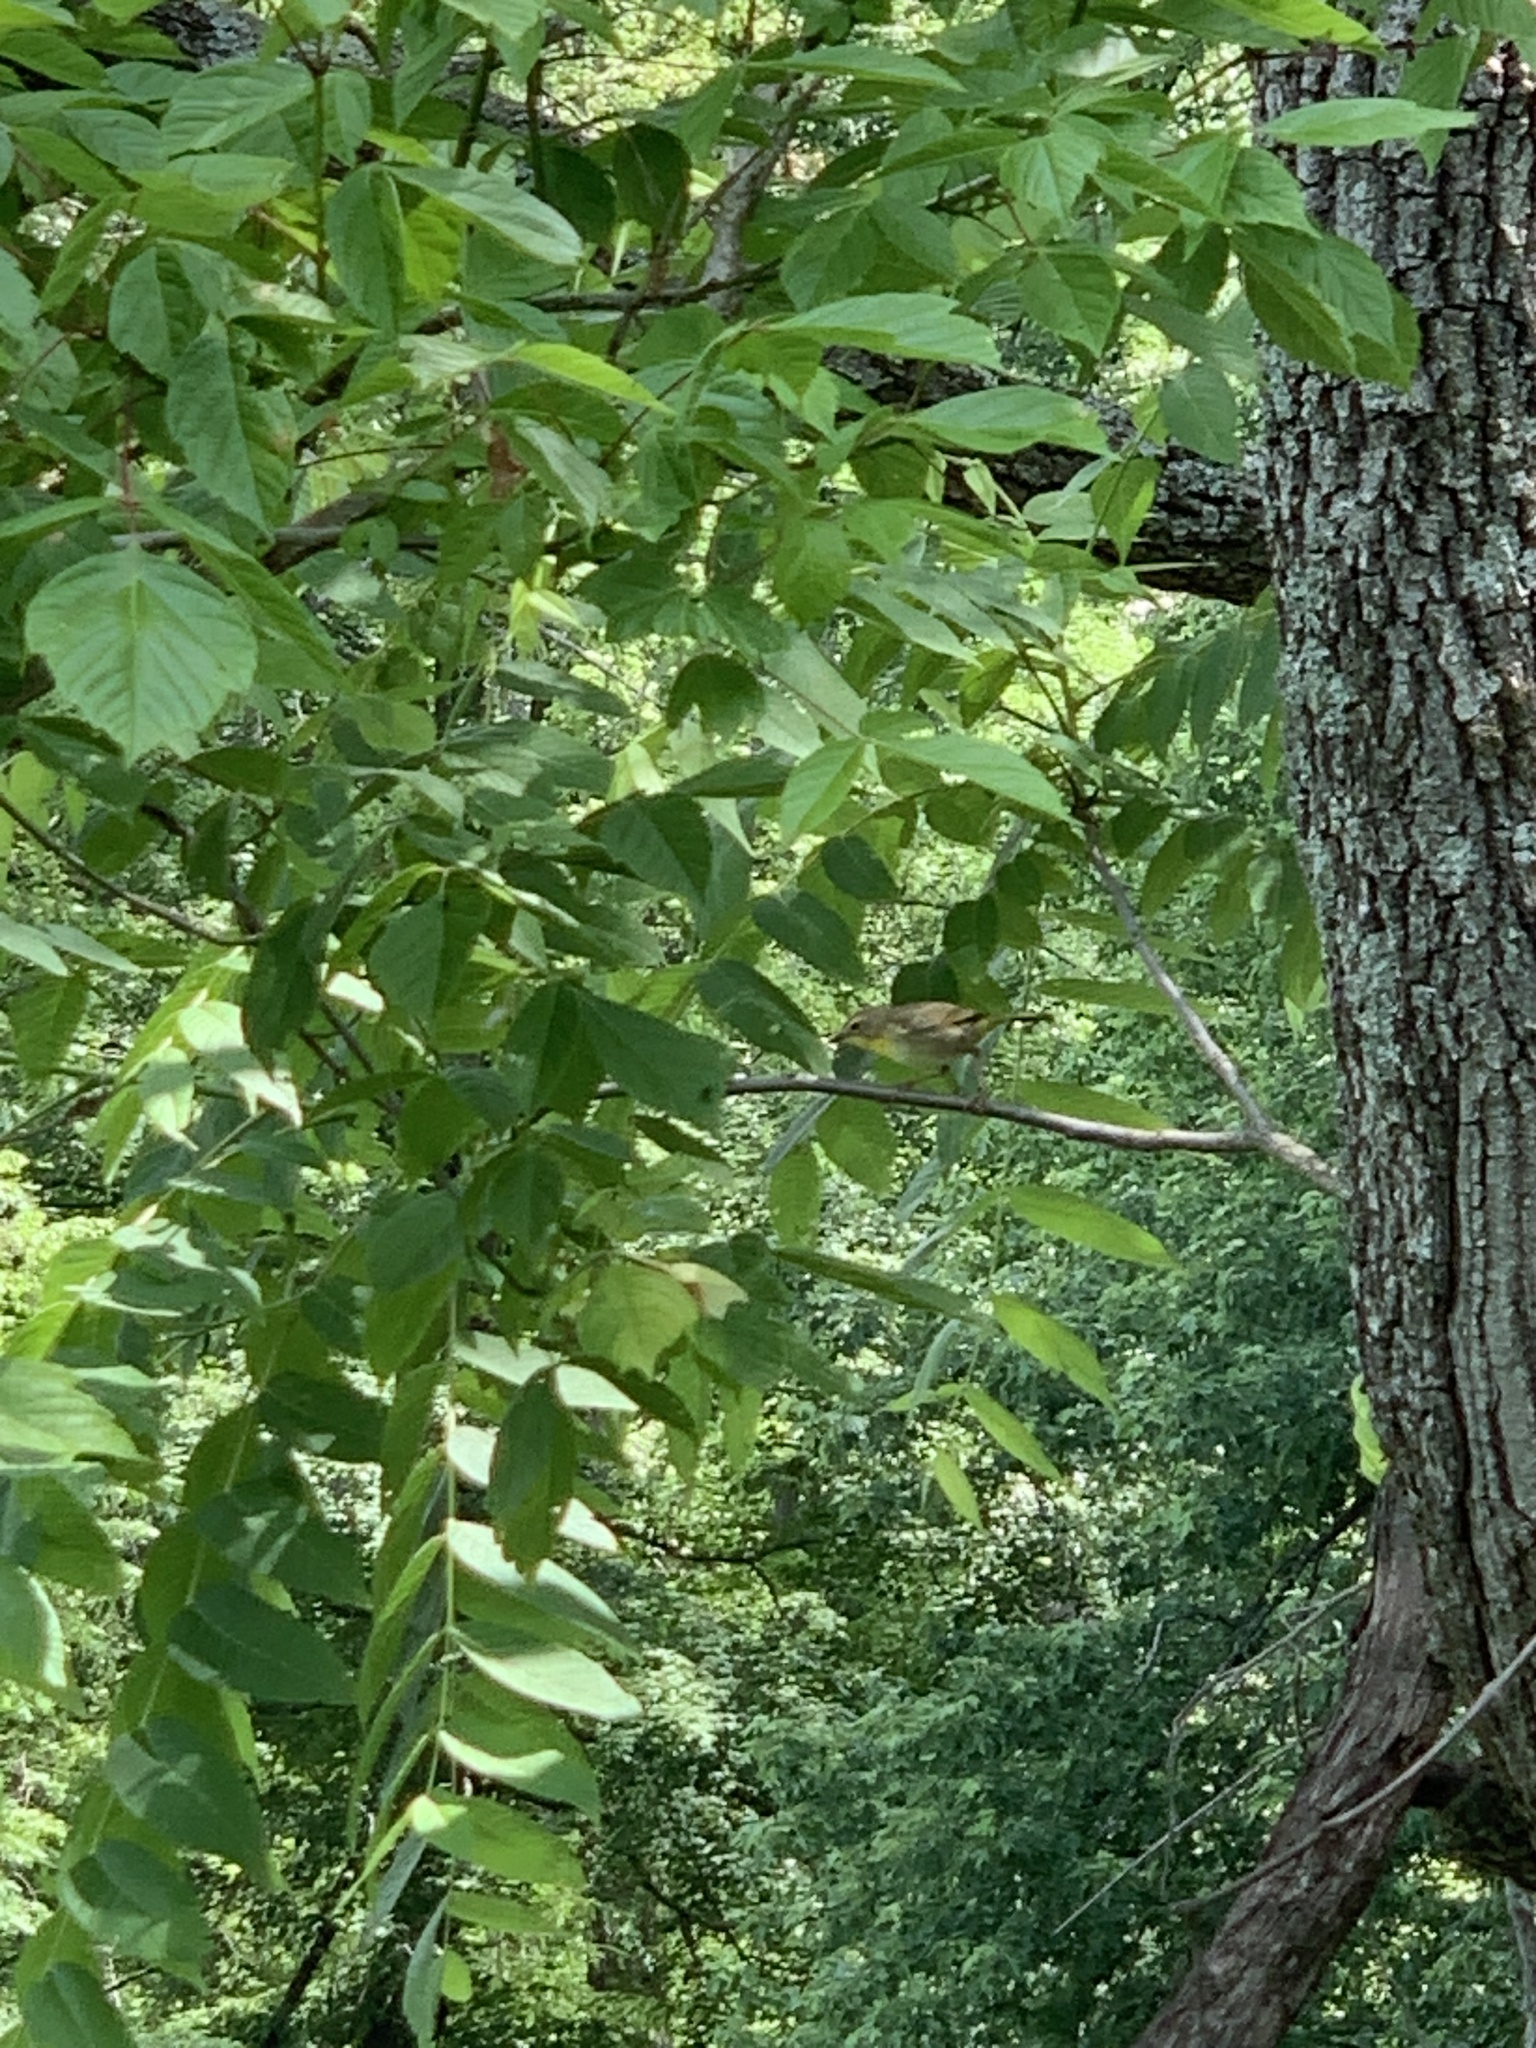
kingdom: Animalia
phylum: Chordata
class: Aves
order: Passeriformes
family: Parulidae
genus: Setophaga
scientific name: Setophaga ruticilla
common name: American redstart
